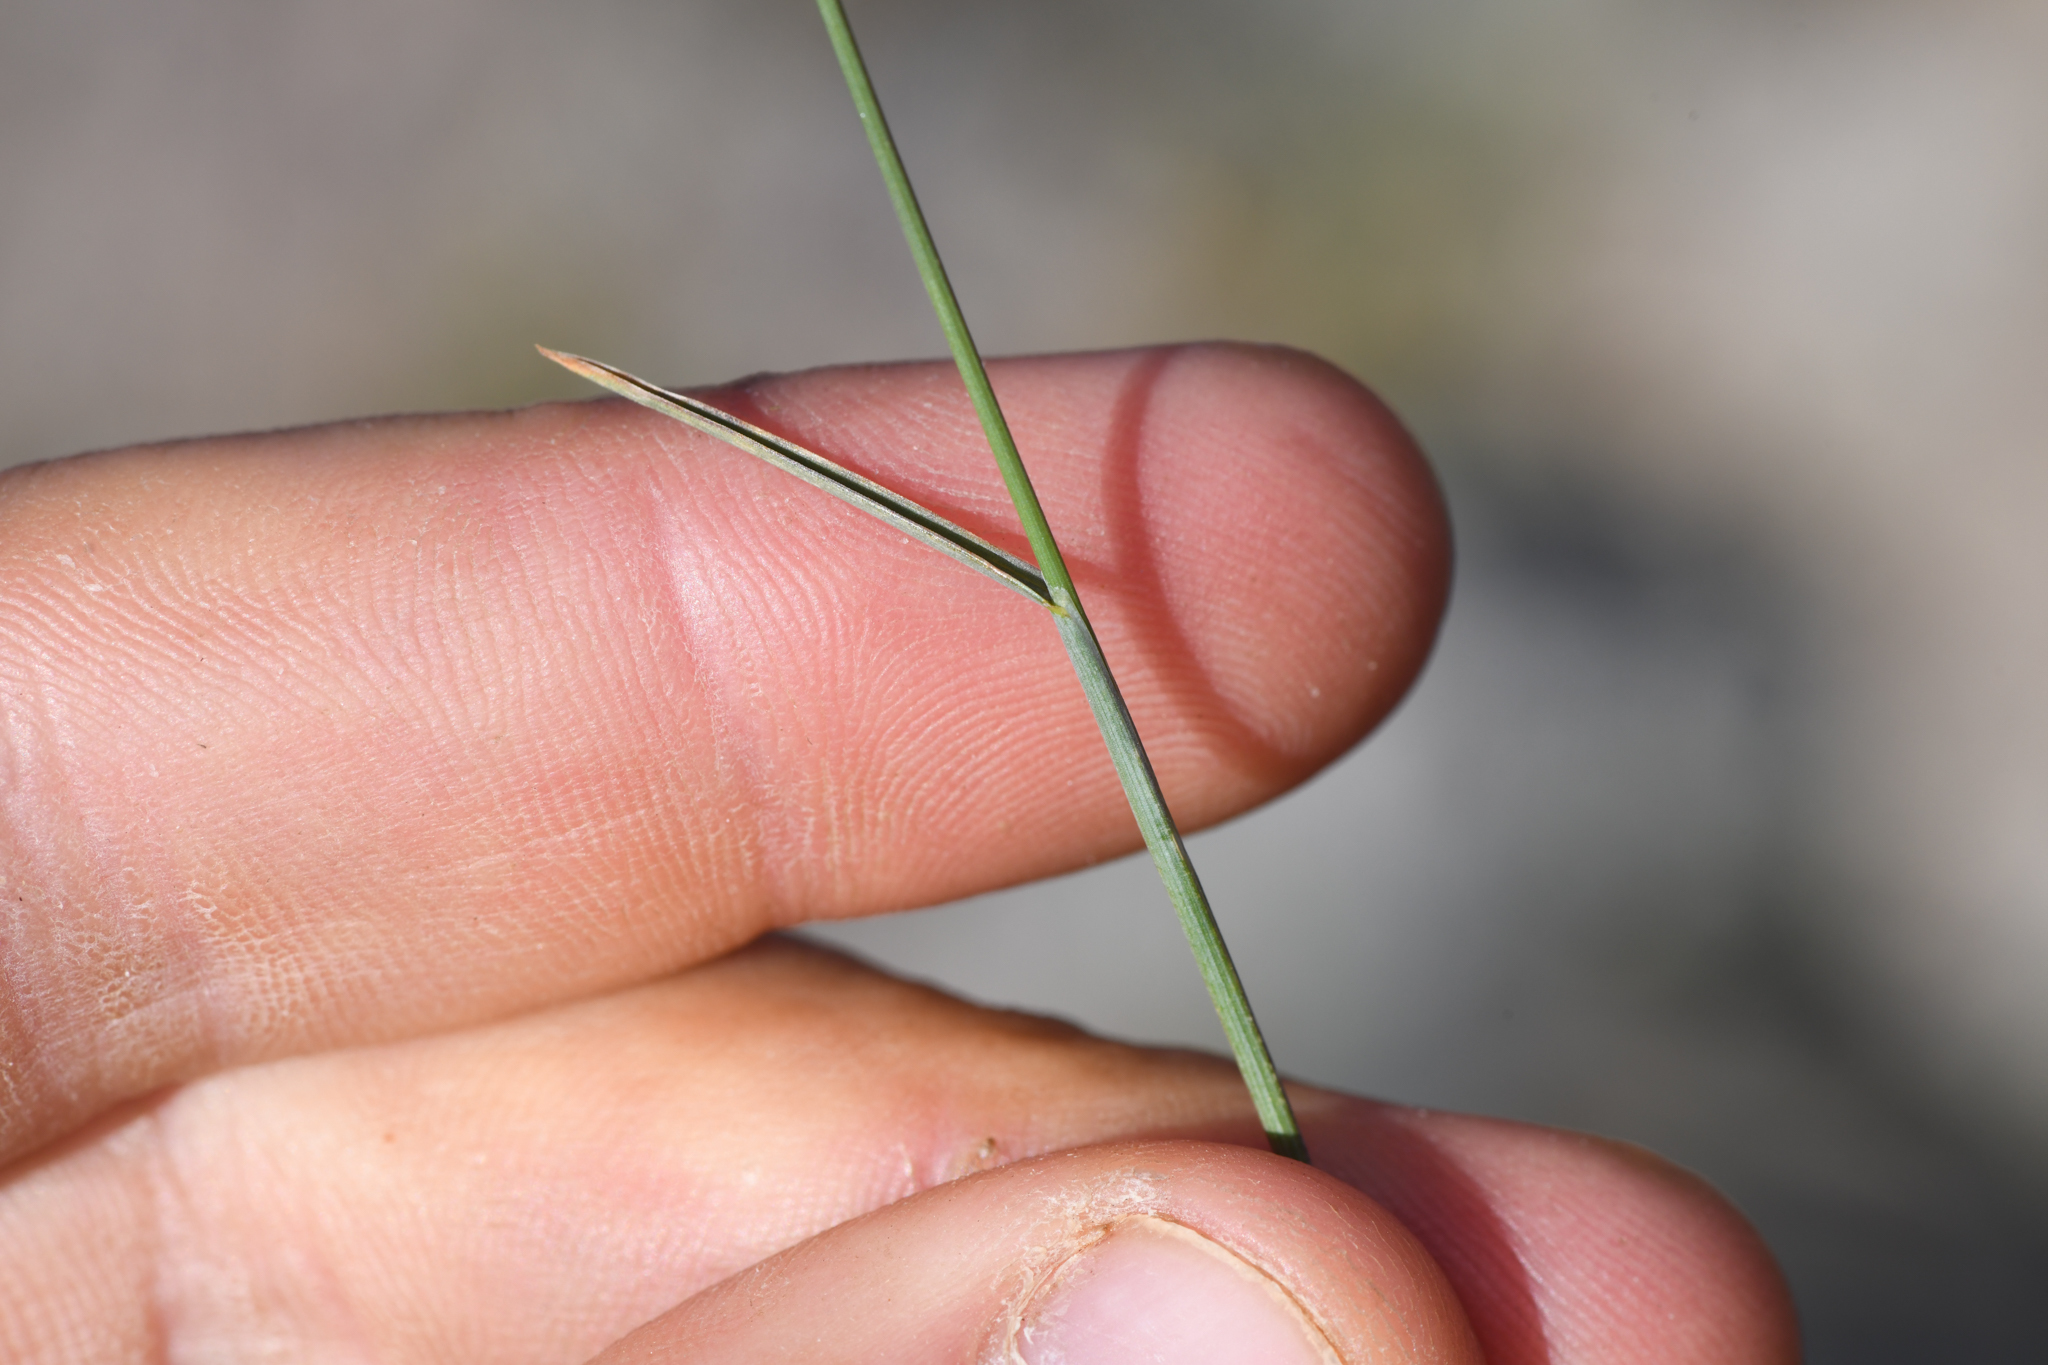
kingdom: Plantae
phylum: Tracheophyta
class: Liliopsida
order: Poales
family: Poaceae
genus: Poa
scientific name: Poa glauca
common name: Glaucous bluegrass
